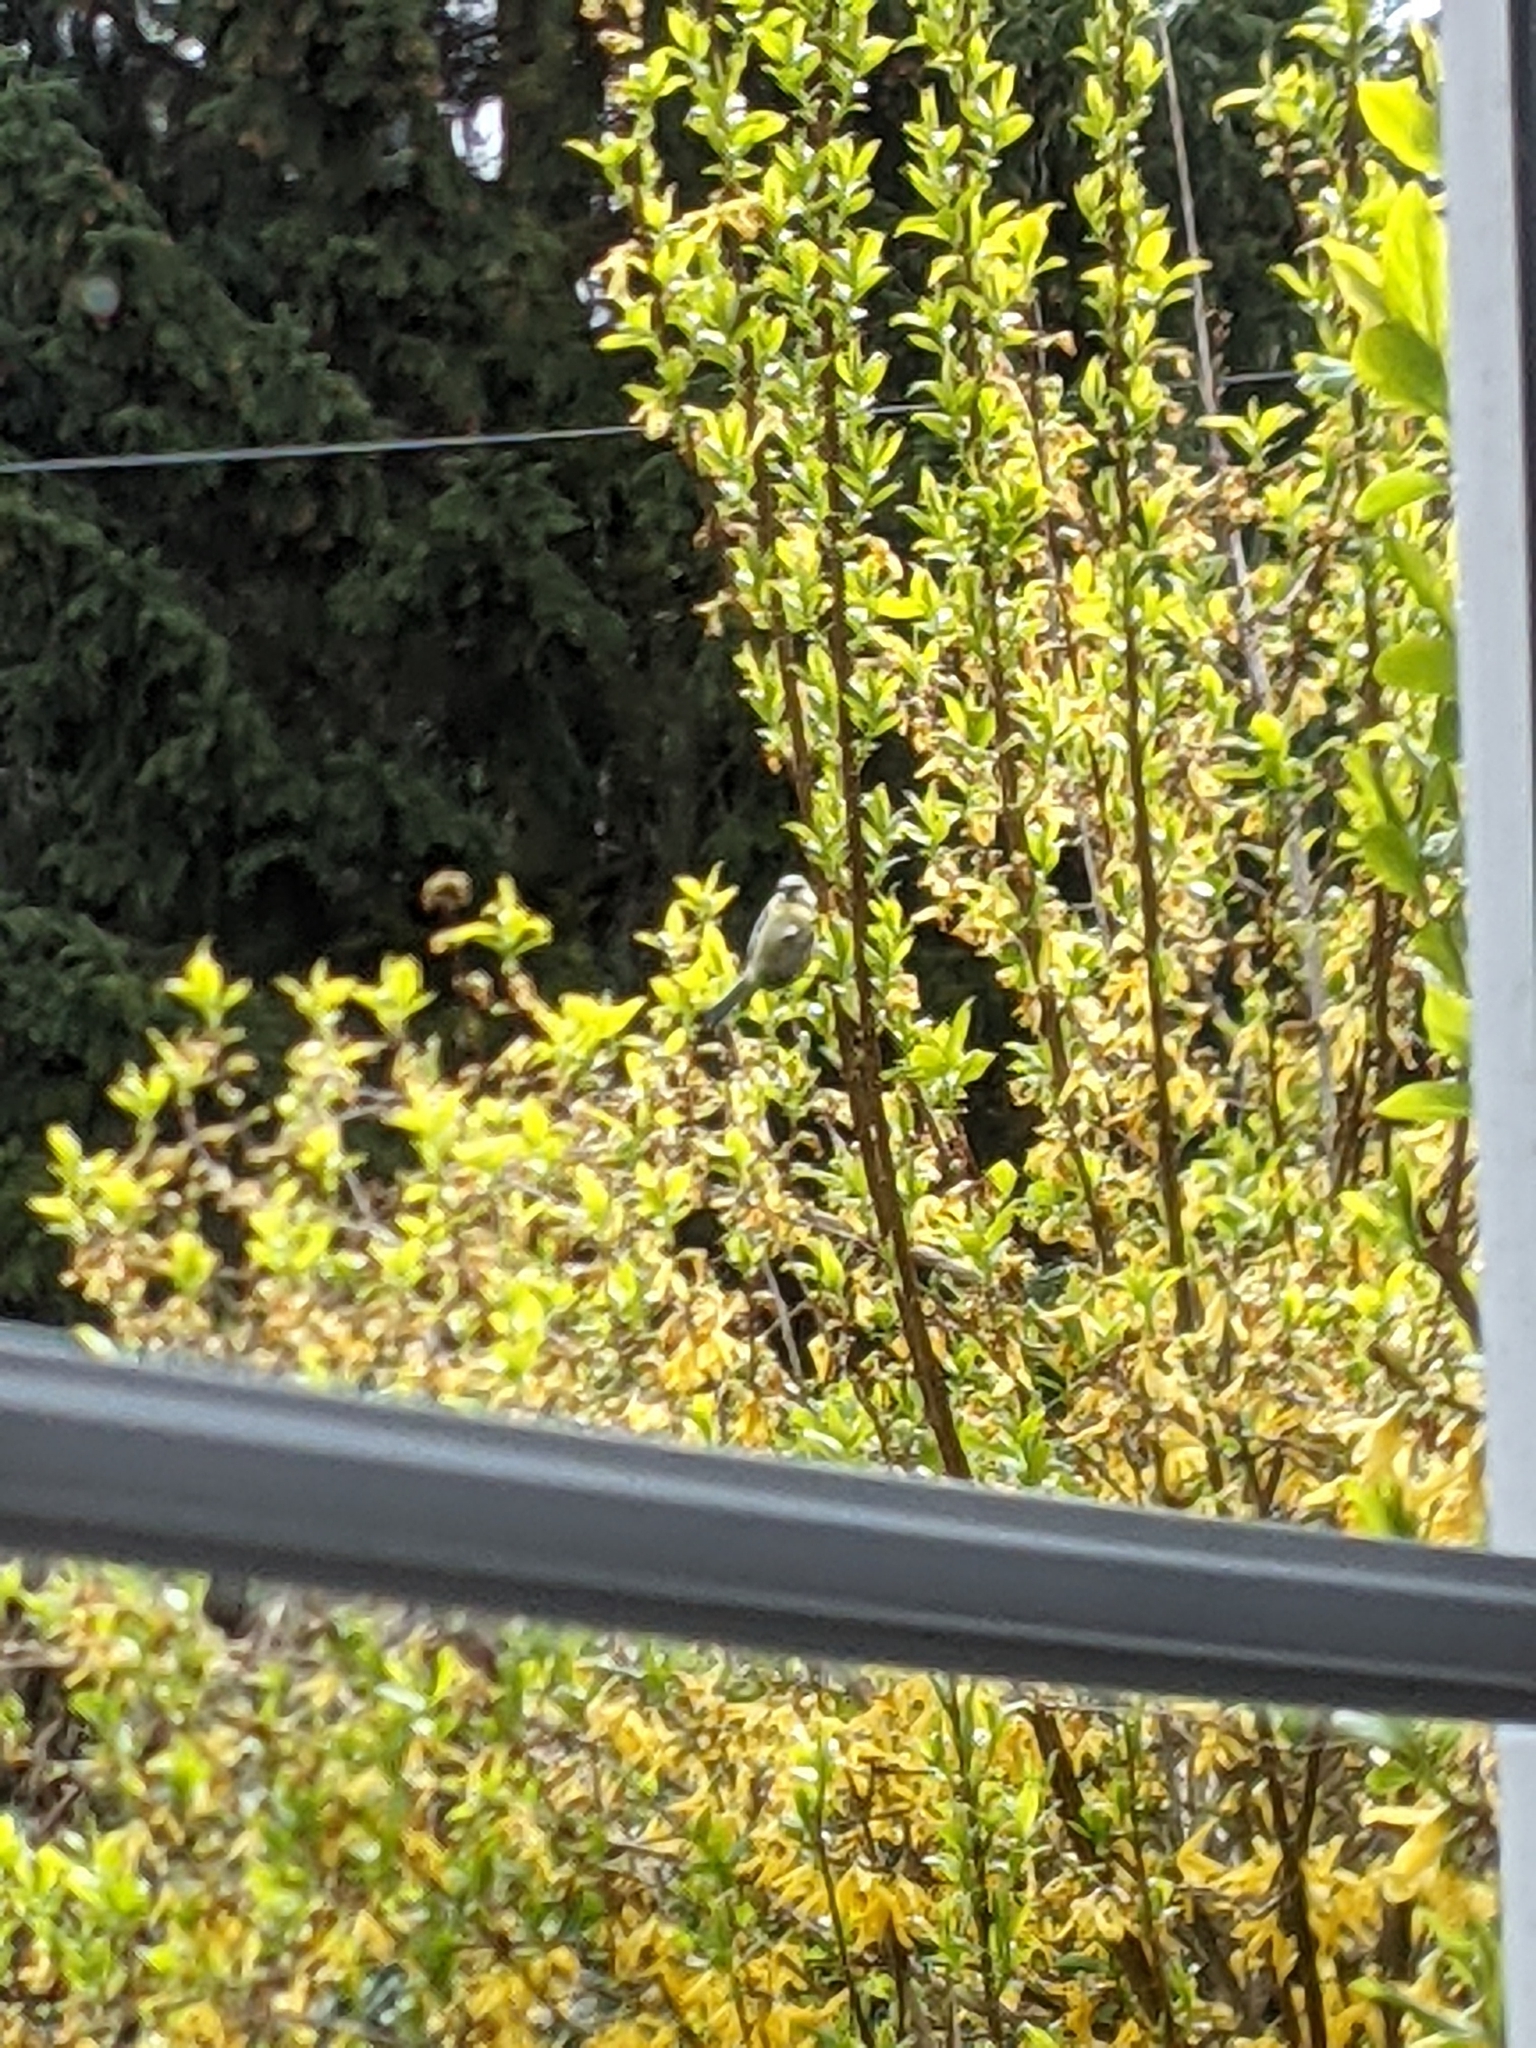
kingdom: Animalia
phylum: Chordata
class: Aves
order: Passeriformes
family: Paridae
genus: Cyanistes
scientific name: Cyanistes caeruleus
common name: Eurasian blue tit
